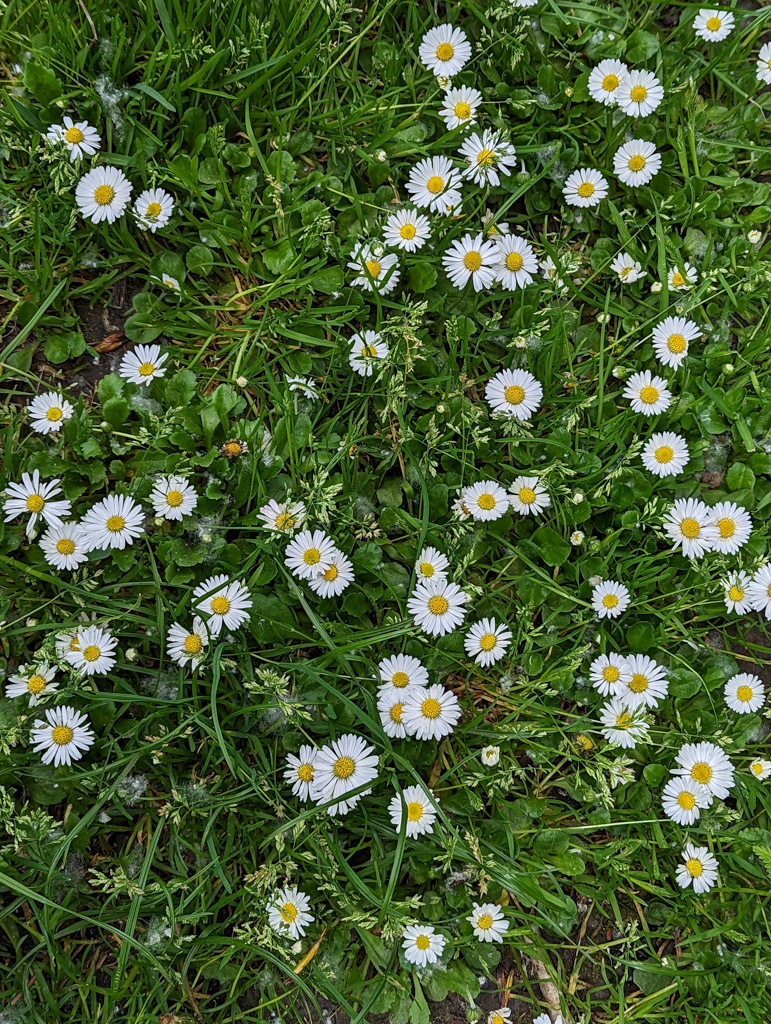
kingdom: Plantae
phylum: Tracheophyta
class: Magnoliopsida
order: Asterales
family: Asteraceae
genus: Bellis
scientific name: Bellis perennis
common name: Lawndaisy
